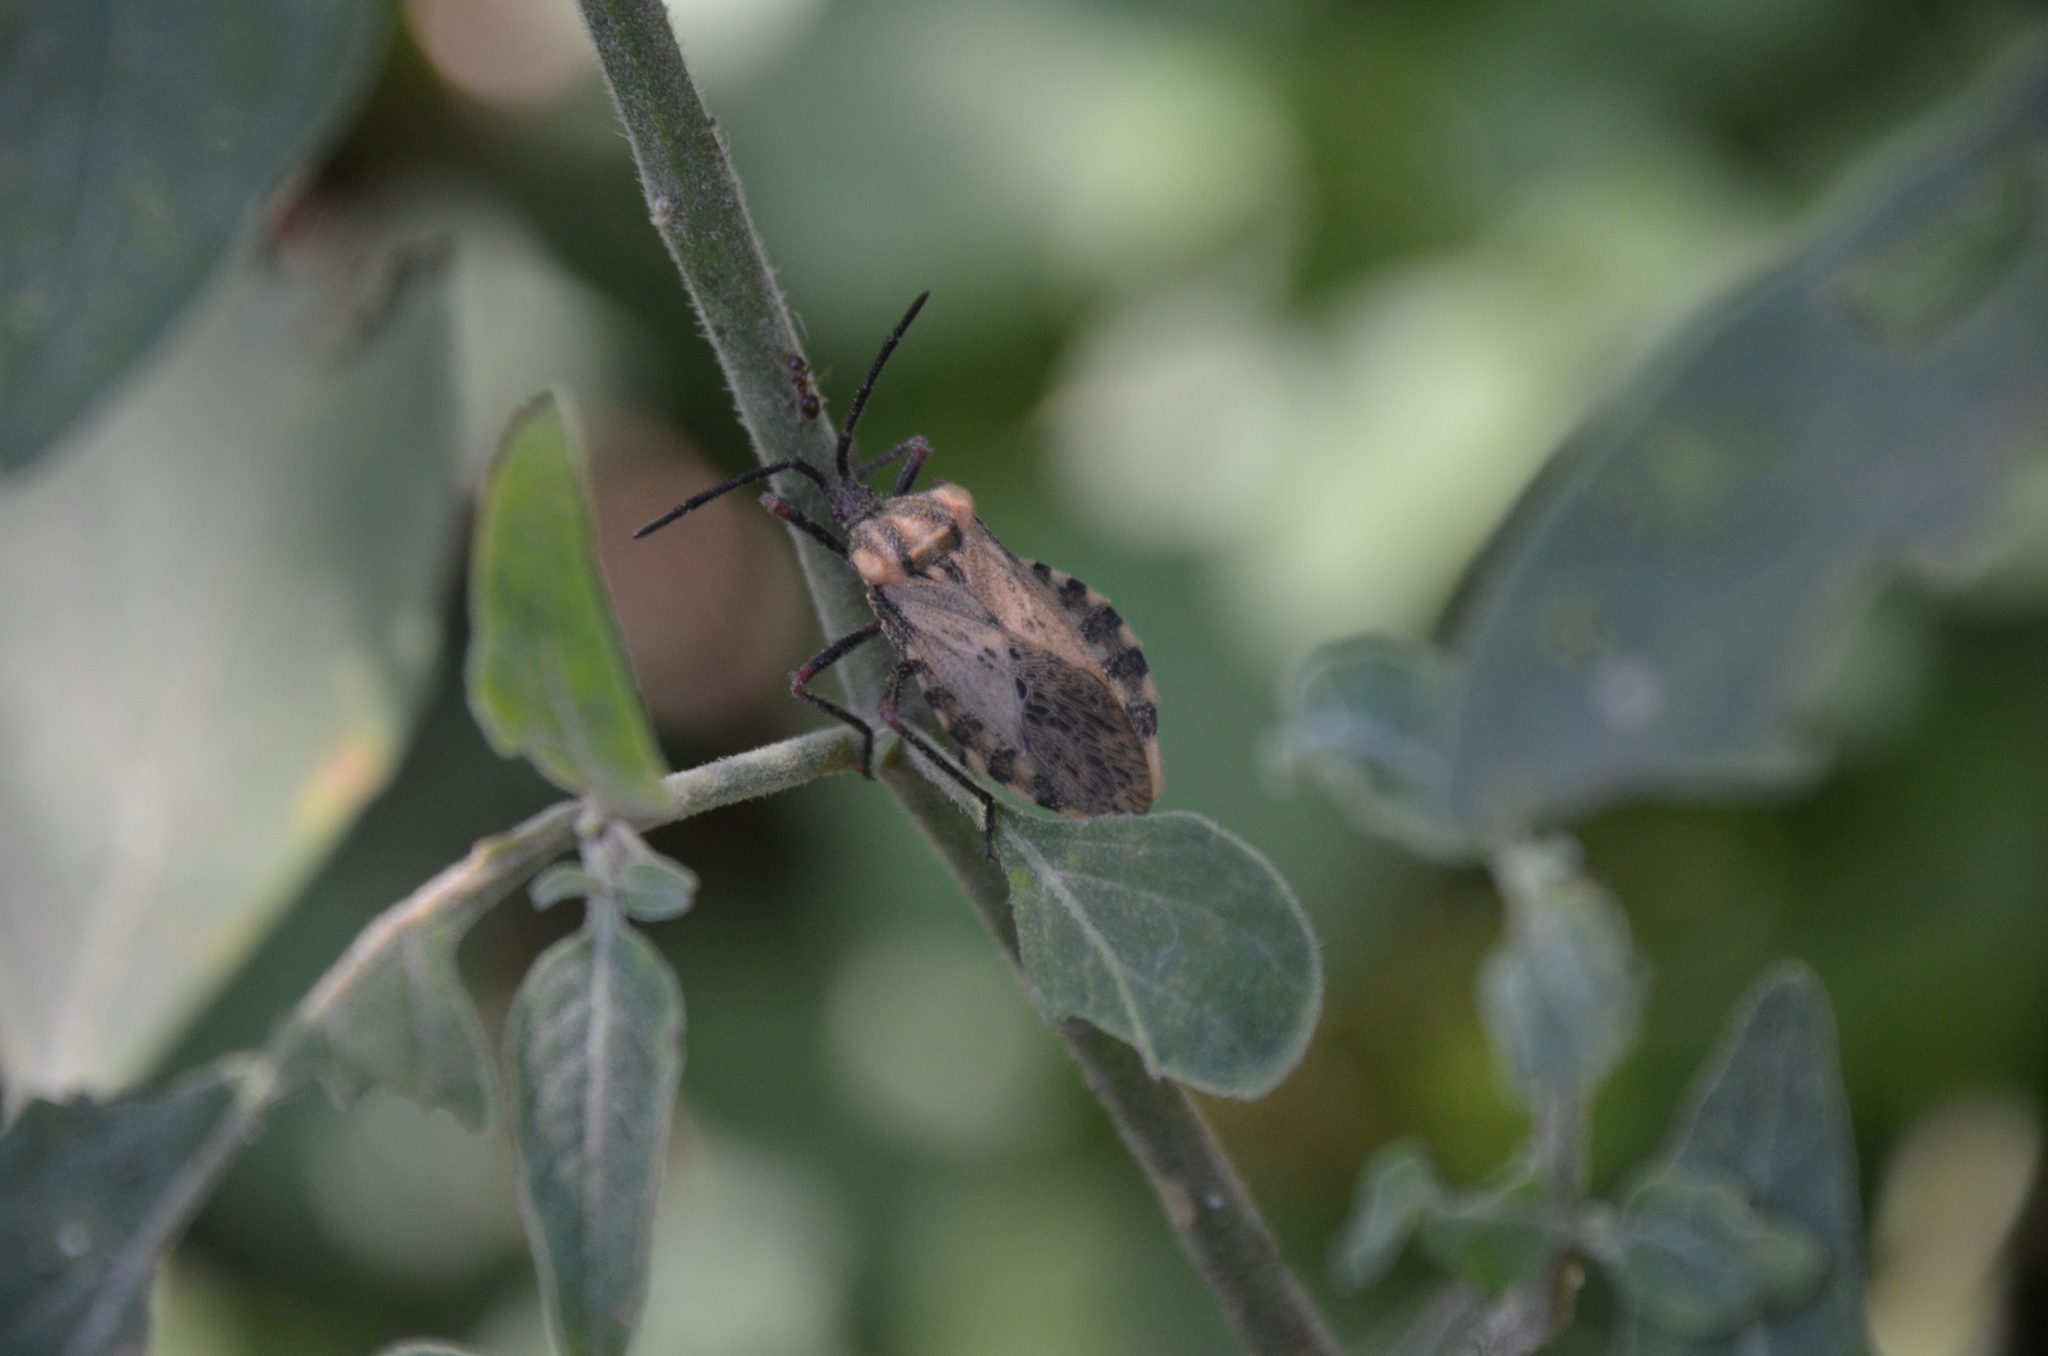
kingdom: Animalia
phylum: Arthropoda
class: Insecta
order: Hemiptera
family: Coreidae
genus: Spartocera
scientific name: Spartocera fusca
